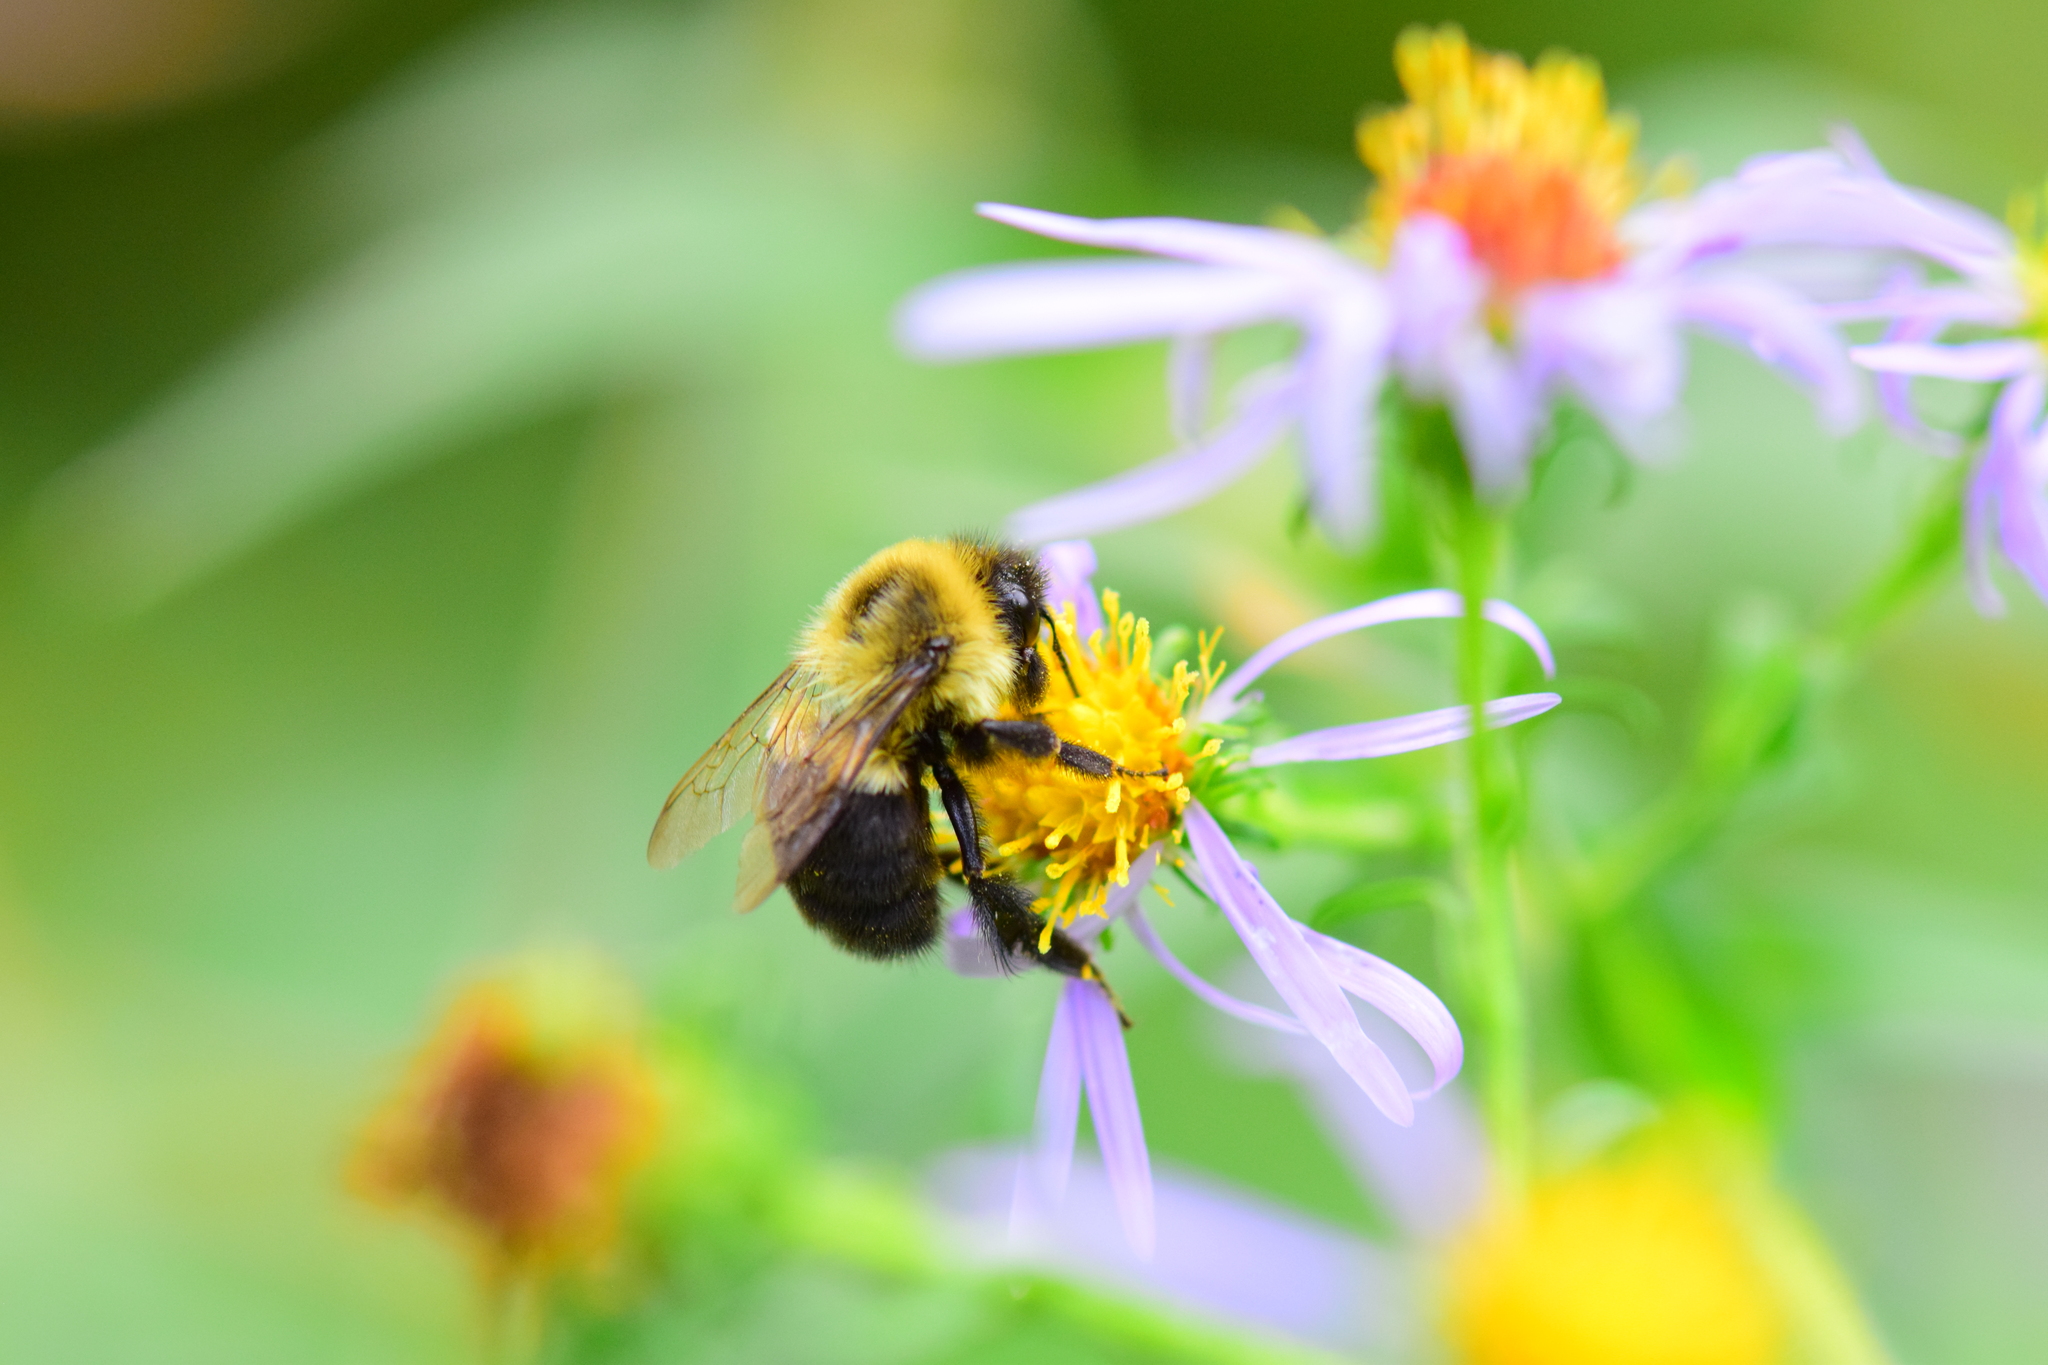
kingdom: Animalia
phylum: Arthropoda
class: Insecta
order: Hymenoptera
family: Apidae
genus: Bombus
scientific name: Bombus impatiens
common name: Common eastern bumble bee
